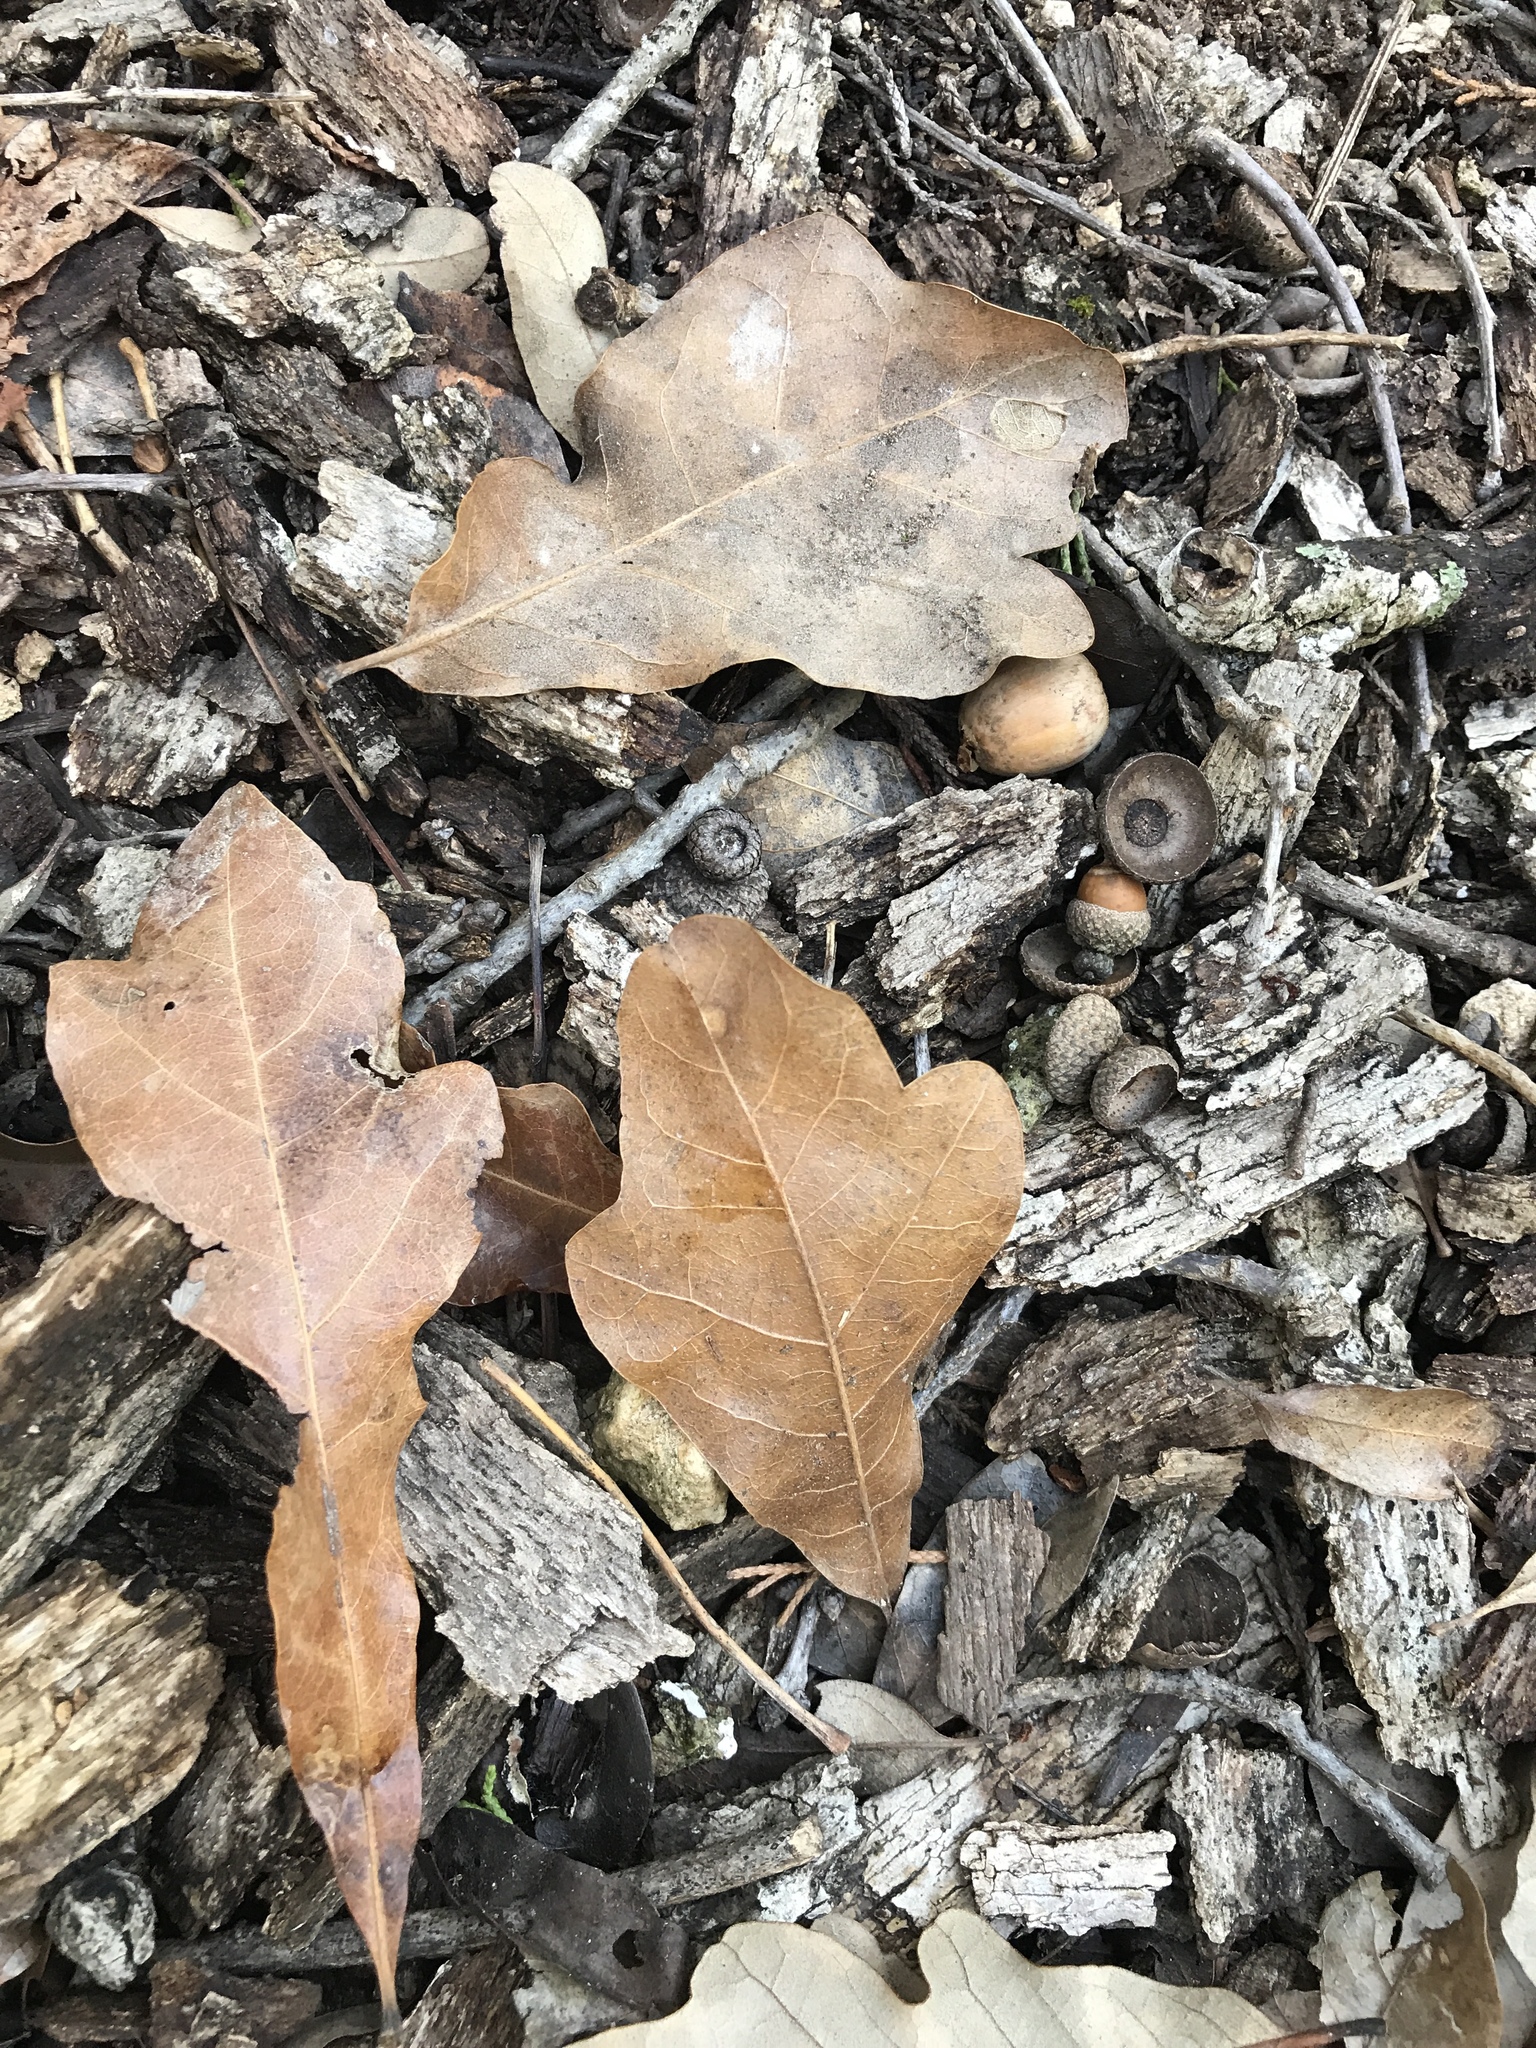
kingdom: Plantae
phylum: Tracheophyta
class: Magnoliopsida
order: Fagales
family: Fagaceae
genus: Quercus
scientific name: Quercus sinuata
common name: Durand oak
